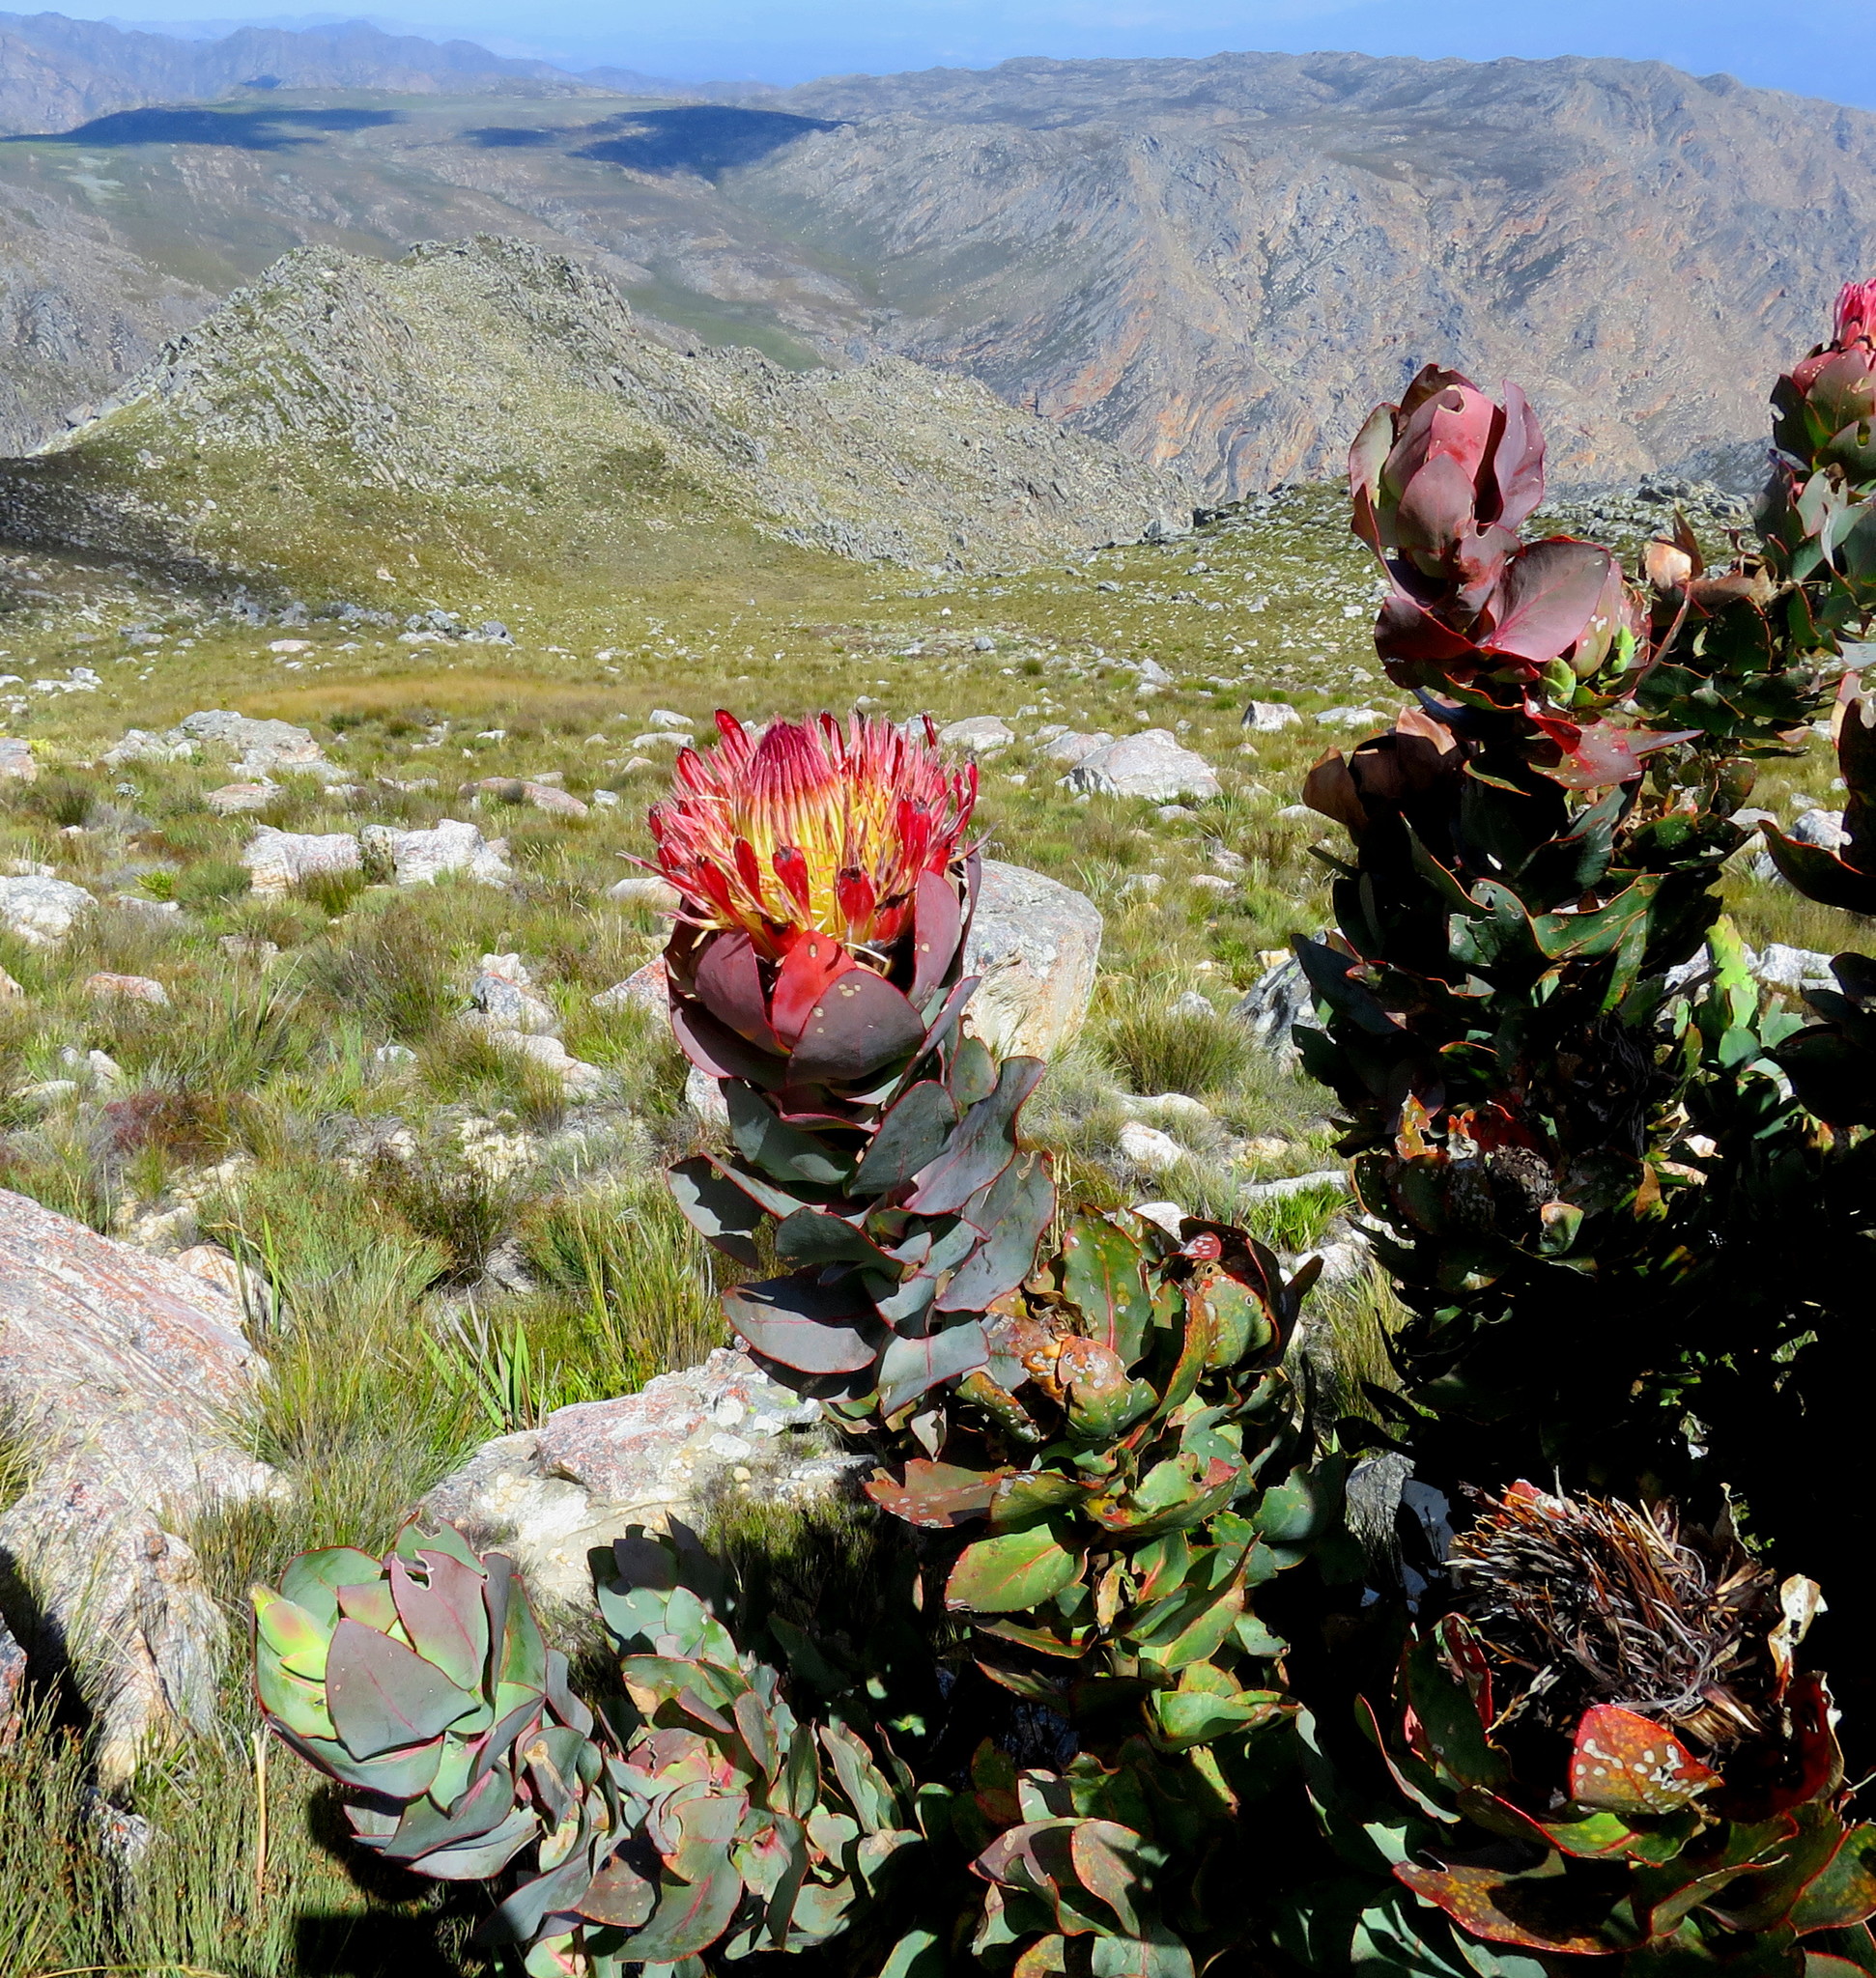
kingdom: Plantae
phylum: Tracheophyta
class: Magnoliopsida
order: Proteales
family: Proteaceae
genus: Protea
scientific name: Protea eximia
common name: Broad-leaved sugarbush
